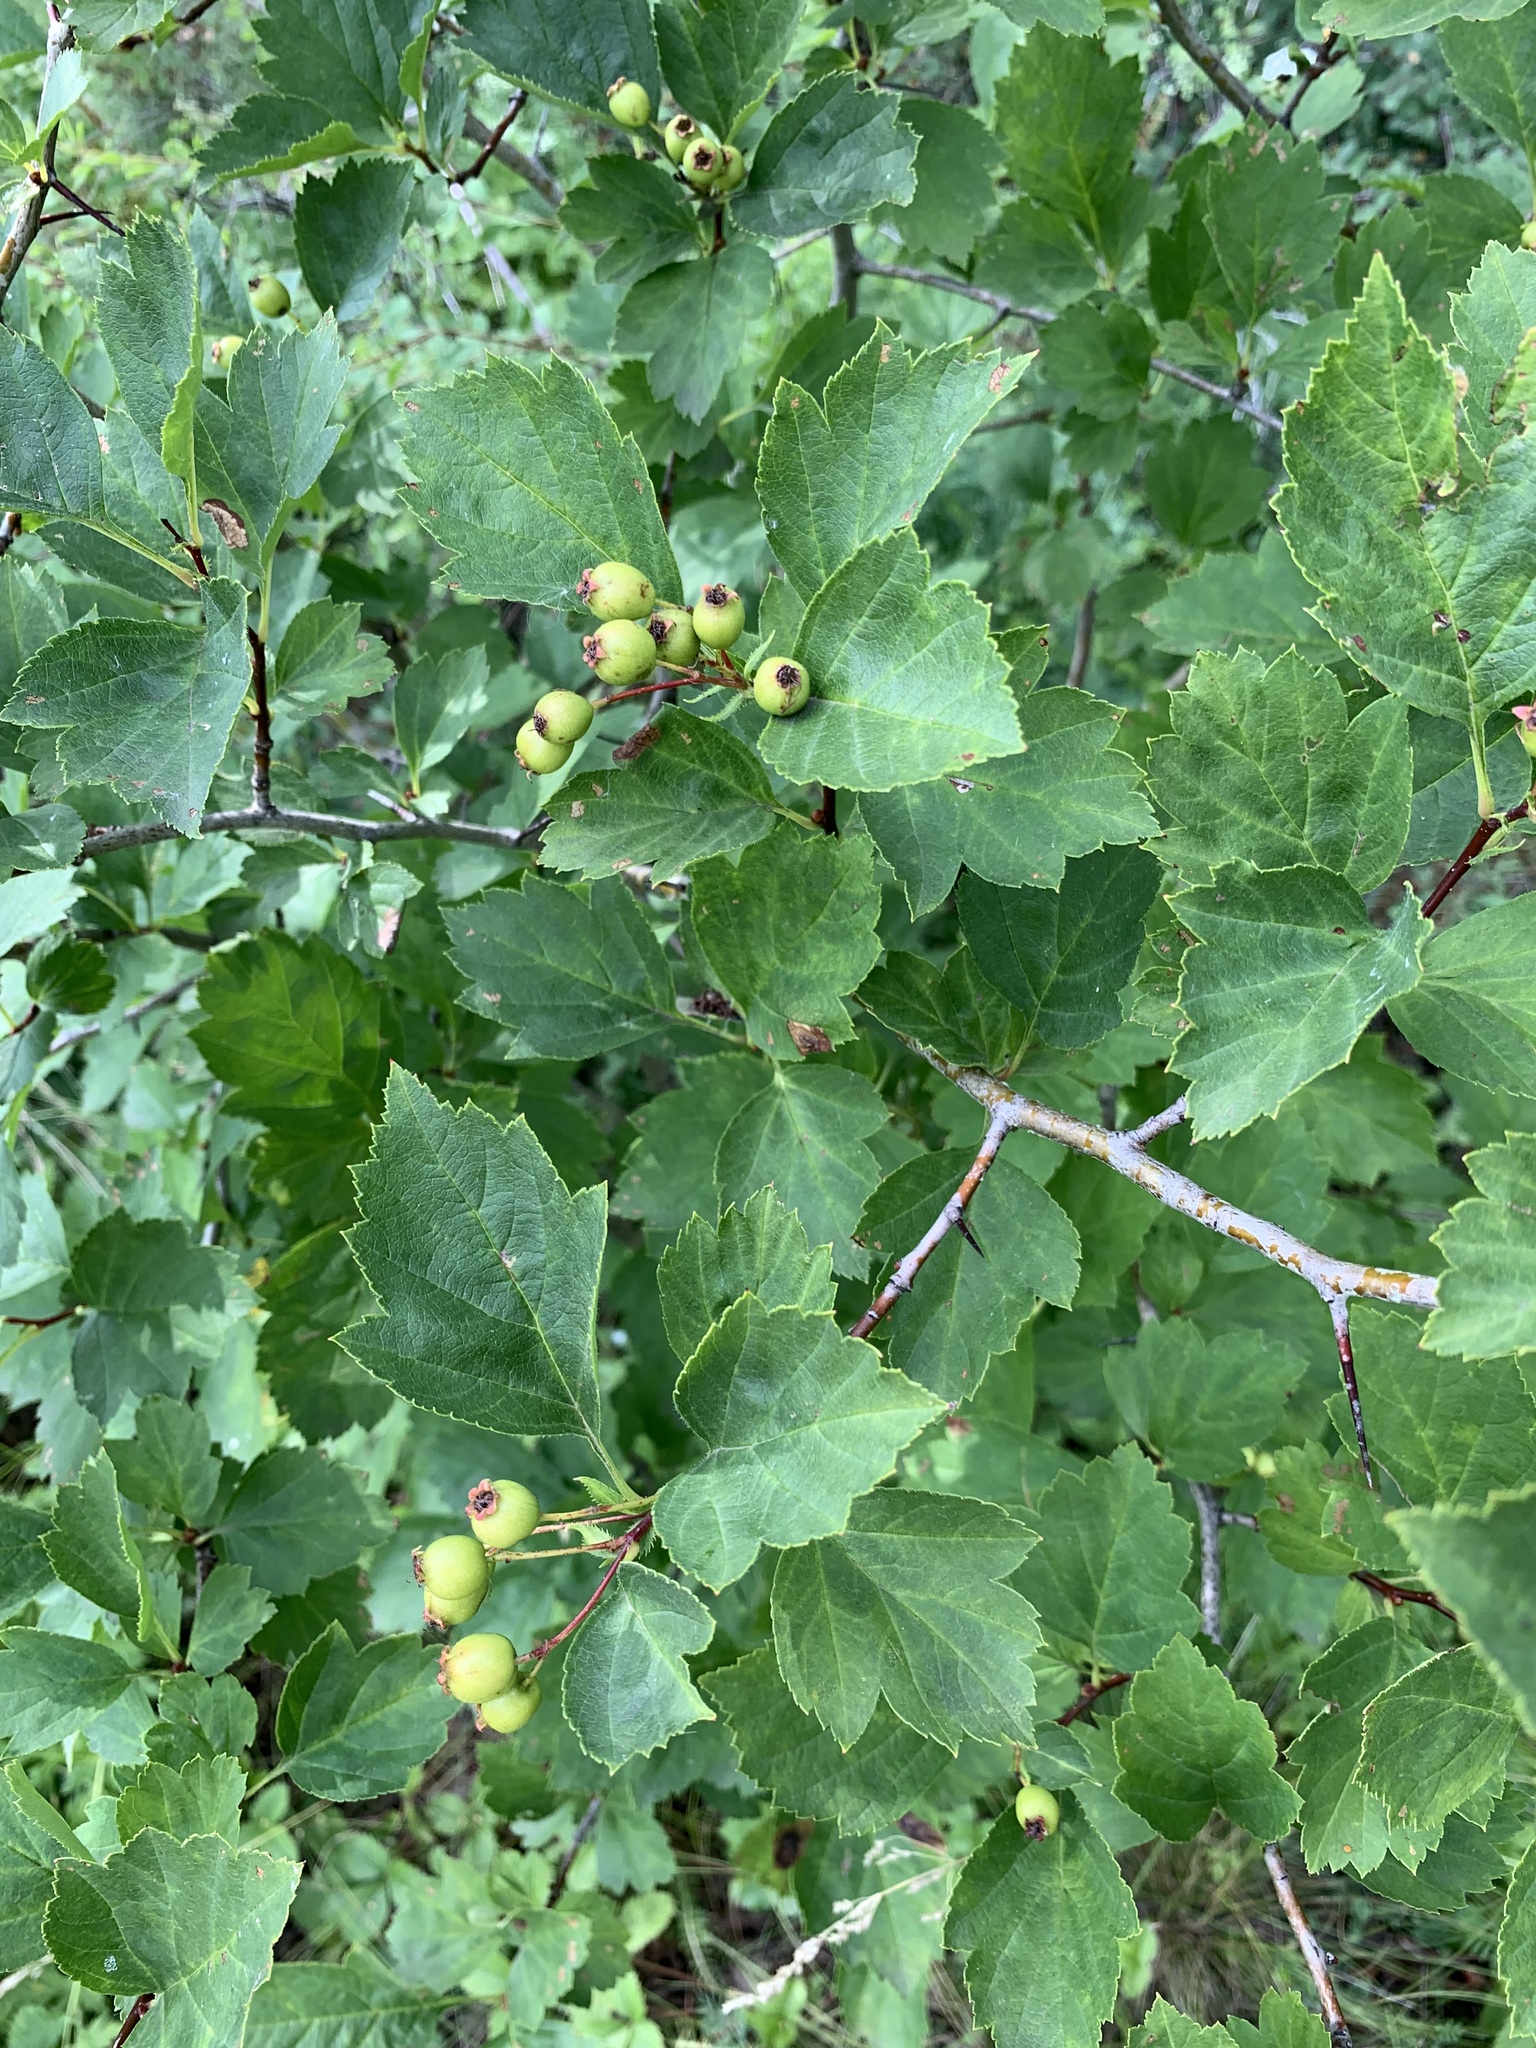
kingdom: Plantae
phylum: Tracheophyta
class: Magnoliopsida
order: Rosales
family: Rosaceae
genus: Crataegus
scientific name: Crataegus sanguinea
